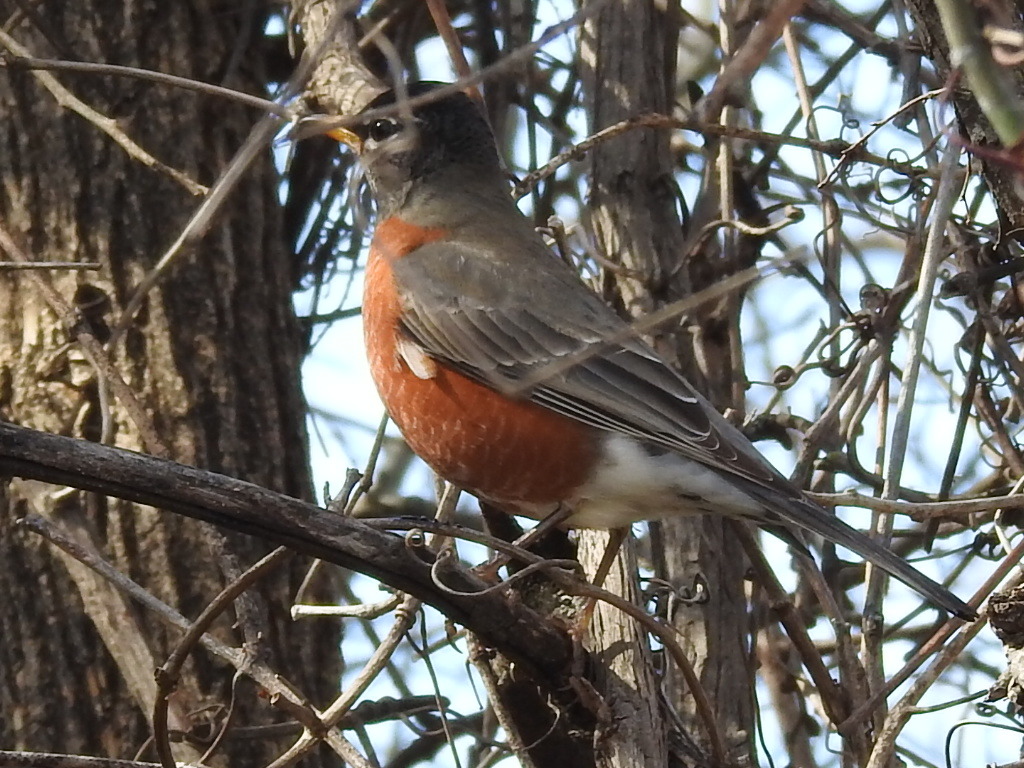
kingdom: Animalia
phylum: Chordata
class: Aves
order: Passeriformes
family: Turdidae
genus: Turdus
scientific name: Turdus migratorius
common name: American robin
